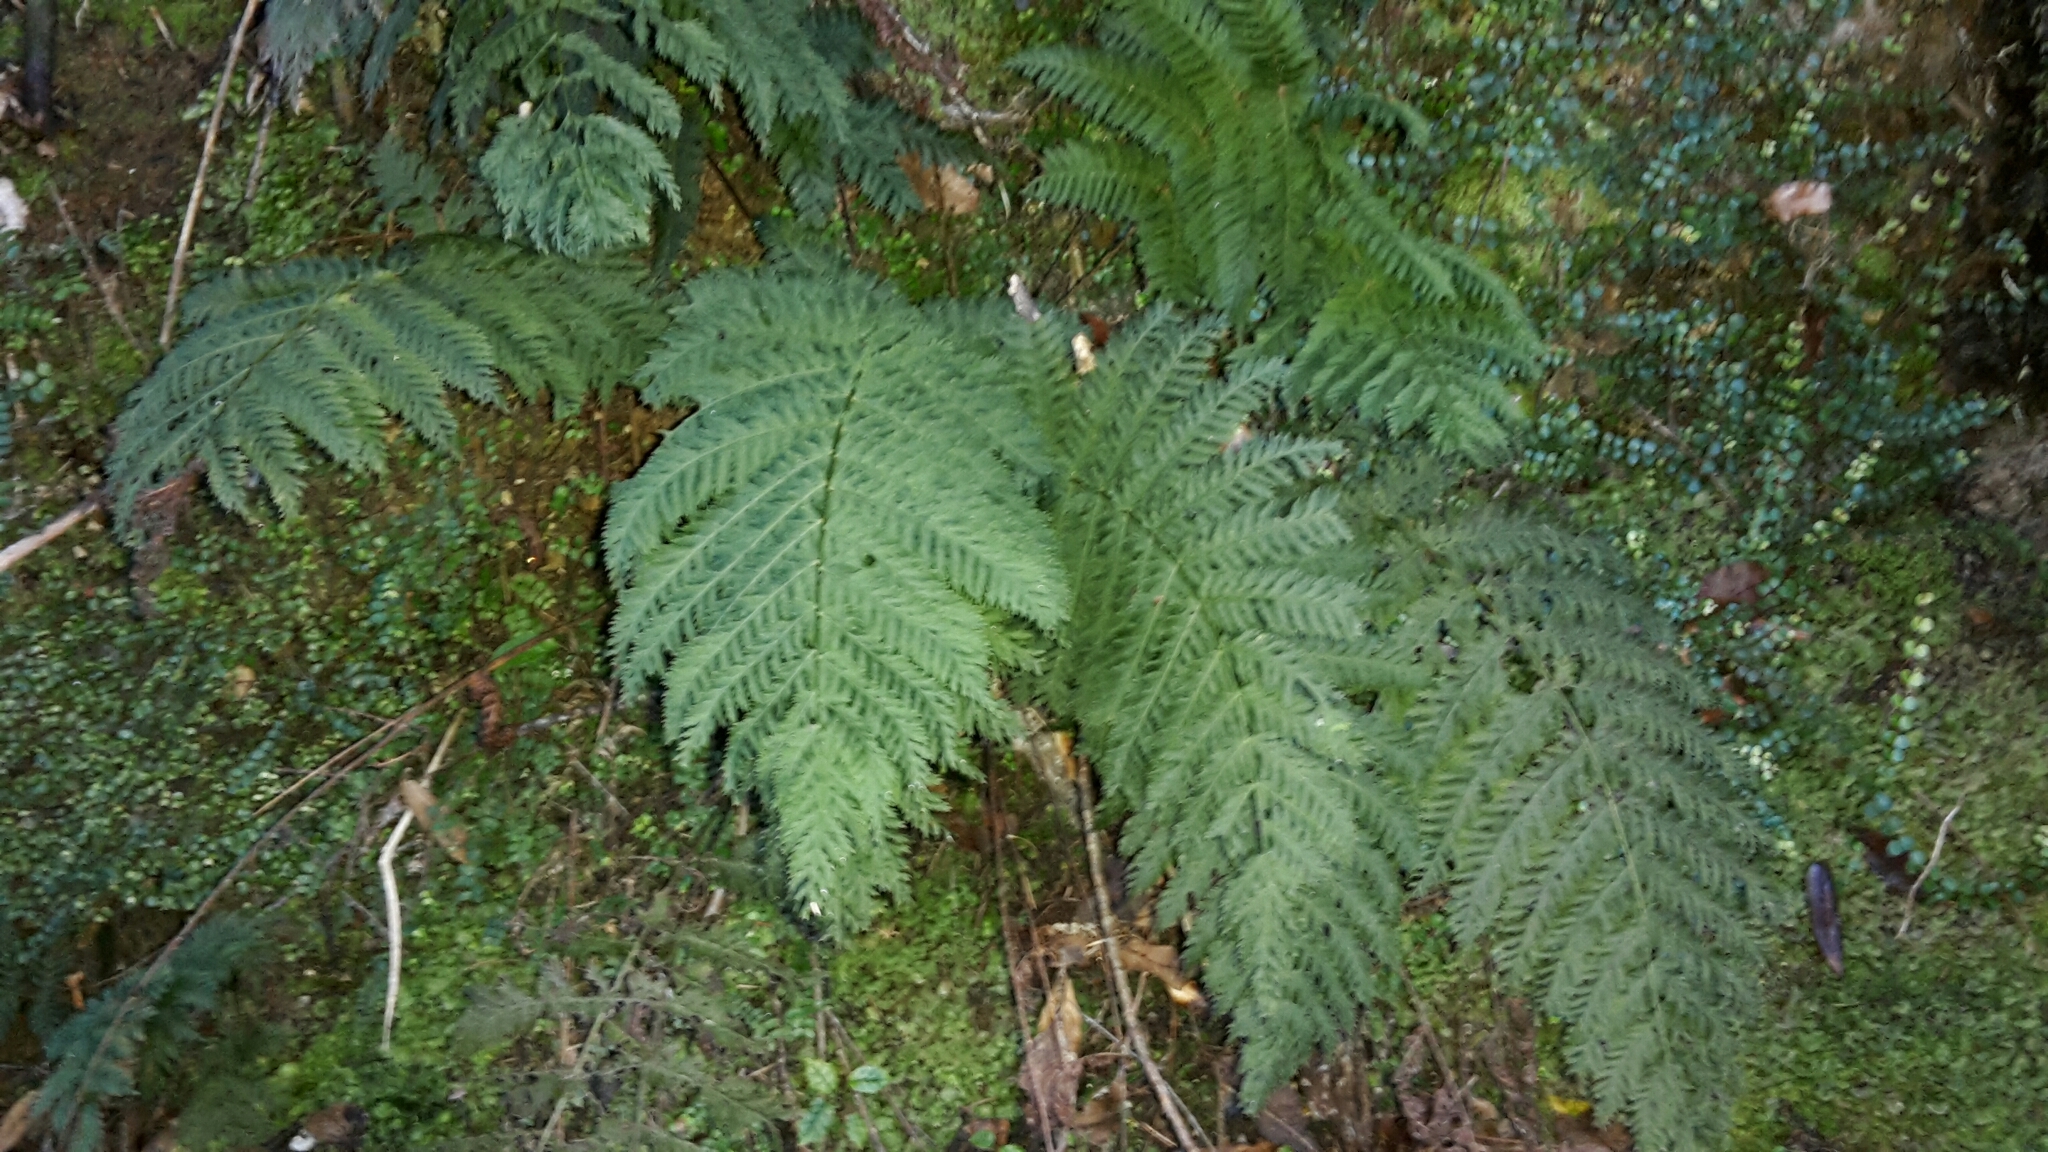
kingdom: Plantae
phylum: Tracheophyta
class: Polypodiopsida
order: Osmundales
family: Osmundaceae
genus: Leptopteris
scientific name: Leptopteris hymenophylloides
